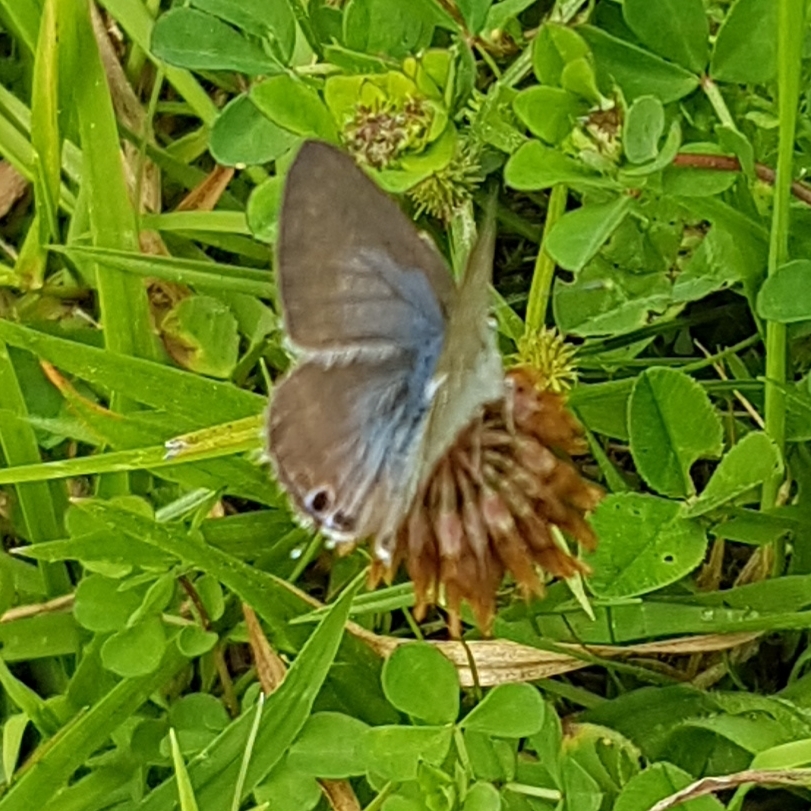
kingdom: Animalia
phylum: Arthropoda
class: Insecta
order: Lepidoptera
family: Lycaenidae
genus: Lampides
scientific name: Lampides boeticus
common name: Long-tailed blue
